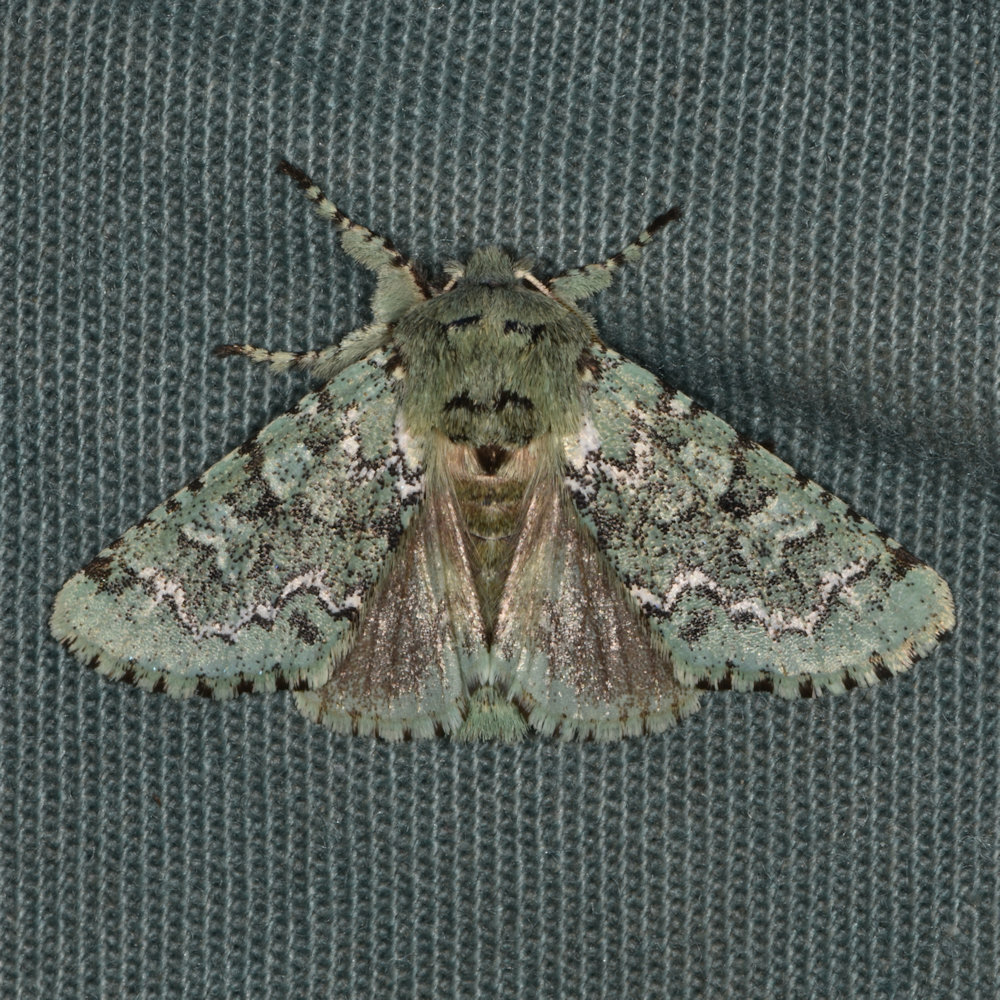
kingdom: Animalia
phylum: Arthropoda
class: Insecta
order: Lepidoptera
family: Noctuidae
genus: Feralia
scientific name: Feralia jocosa
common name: Joker
